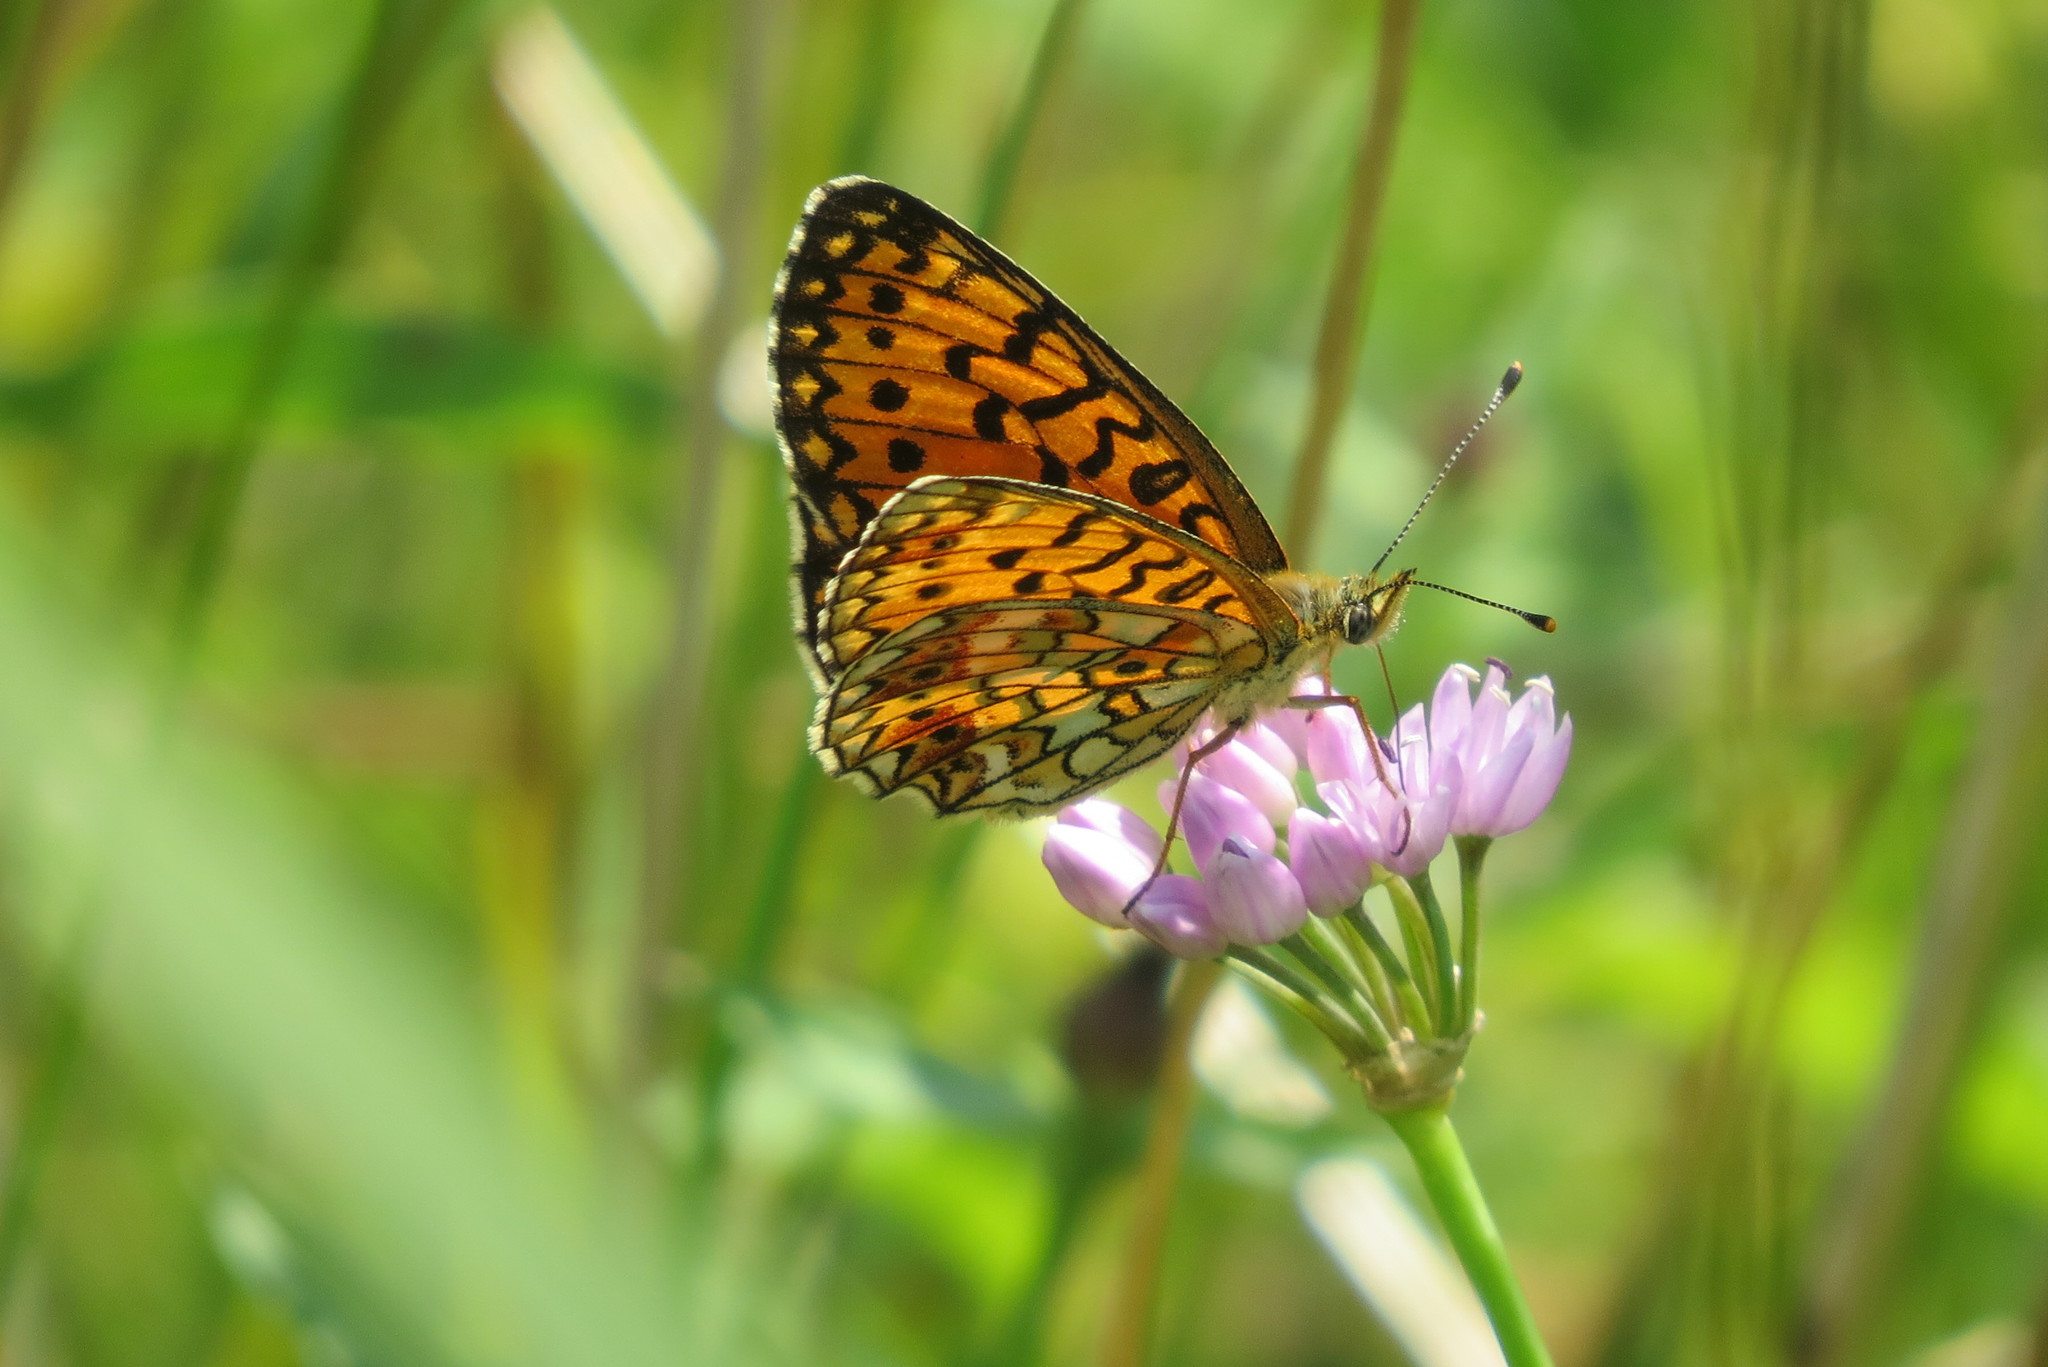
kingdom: Animalia
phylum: Arthropoda
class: Insecta
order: Lepidoptera
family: Nymphalidae
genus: Boloria
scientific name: Boloria selene
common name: Small pearl-bordered fritillary
